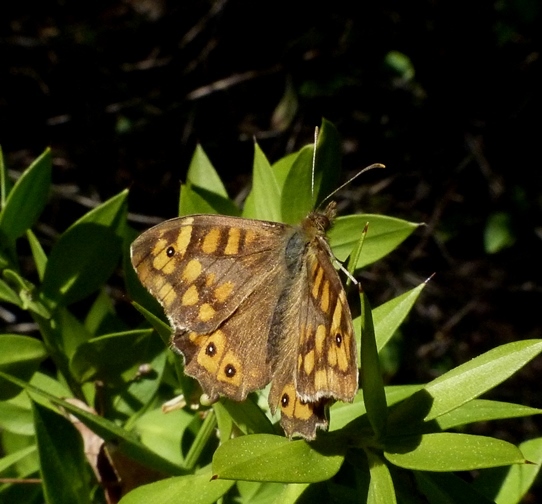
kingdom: Animalia
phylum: Arthropoda
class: Insecta
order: Lepidoptera
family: Nymphalidae
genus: Pararge
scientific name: Pararge aegeria
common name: Speckled wood
